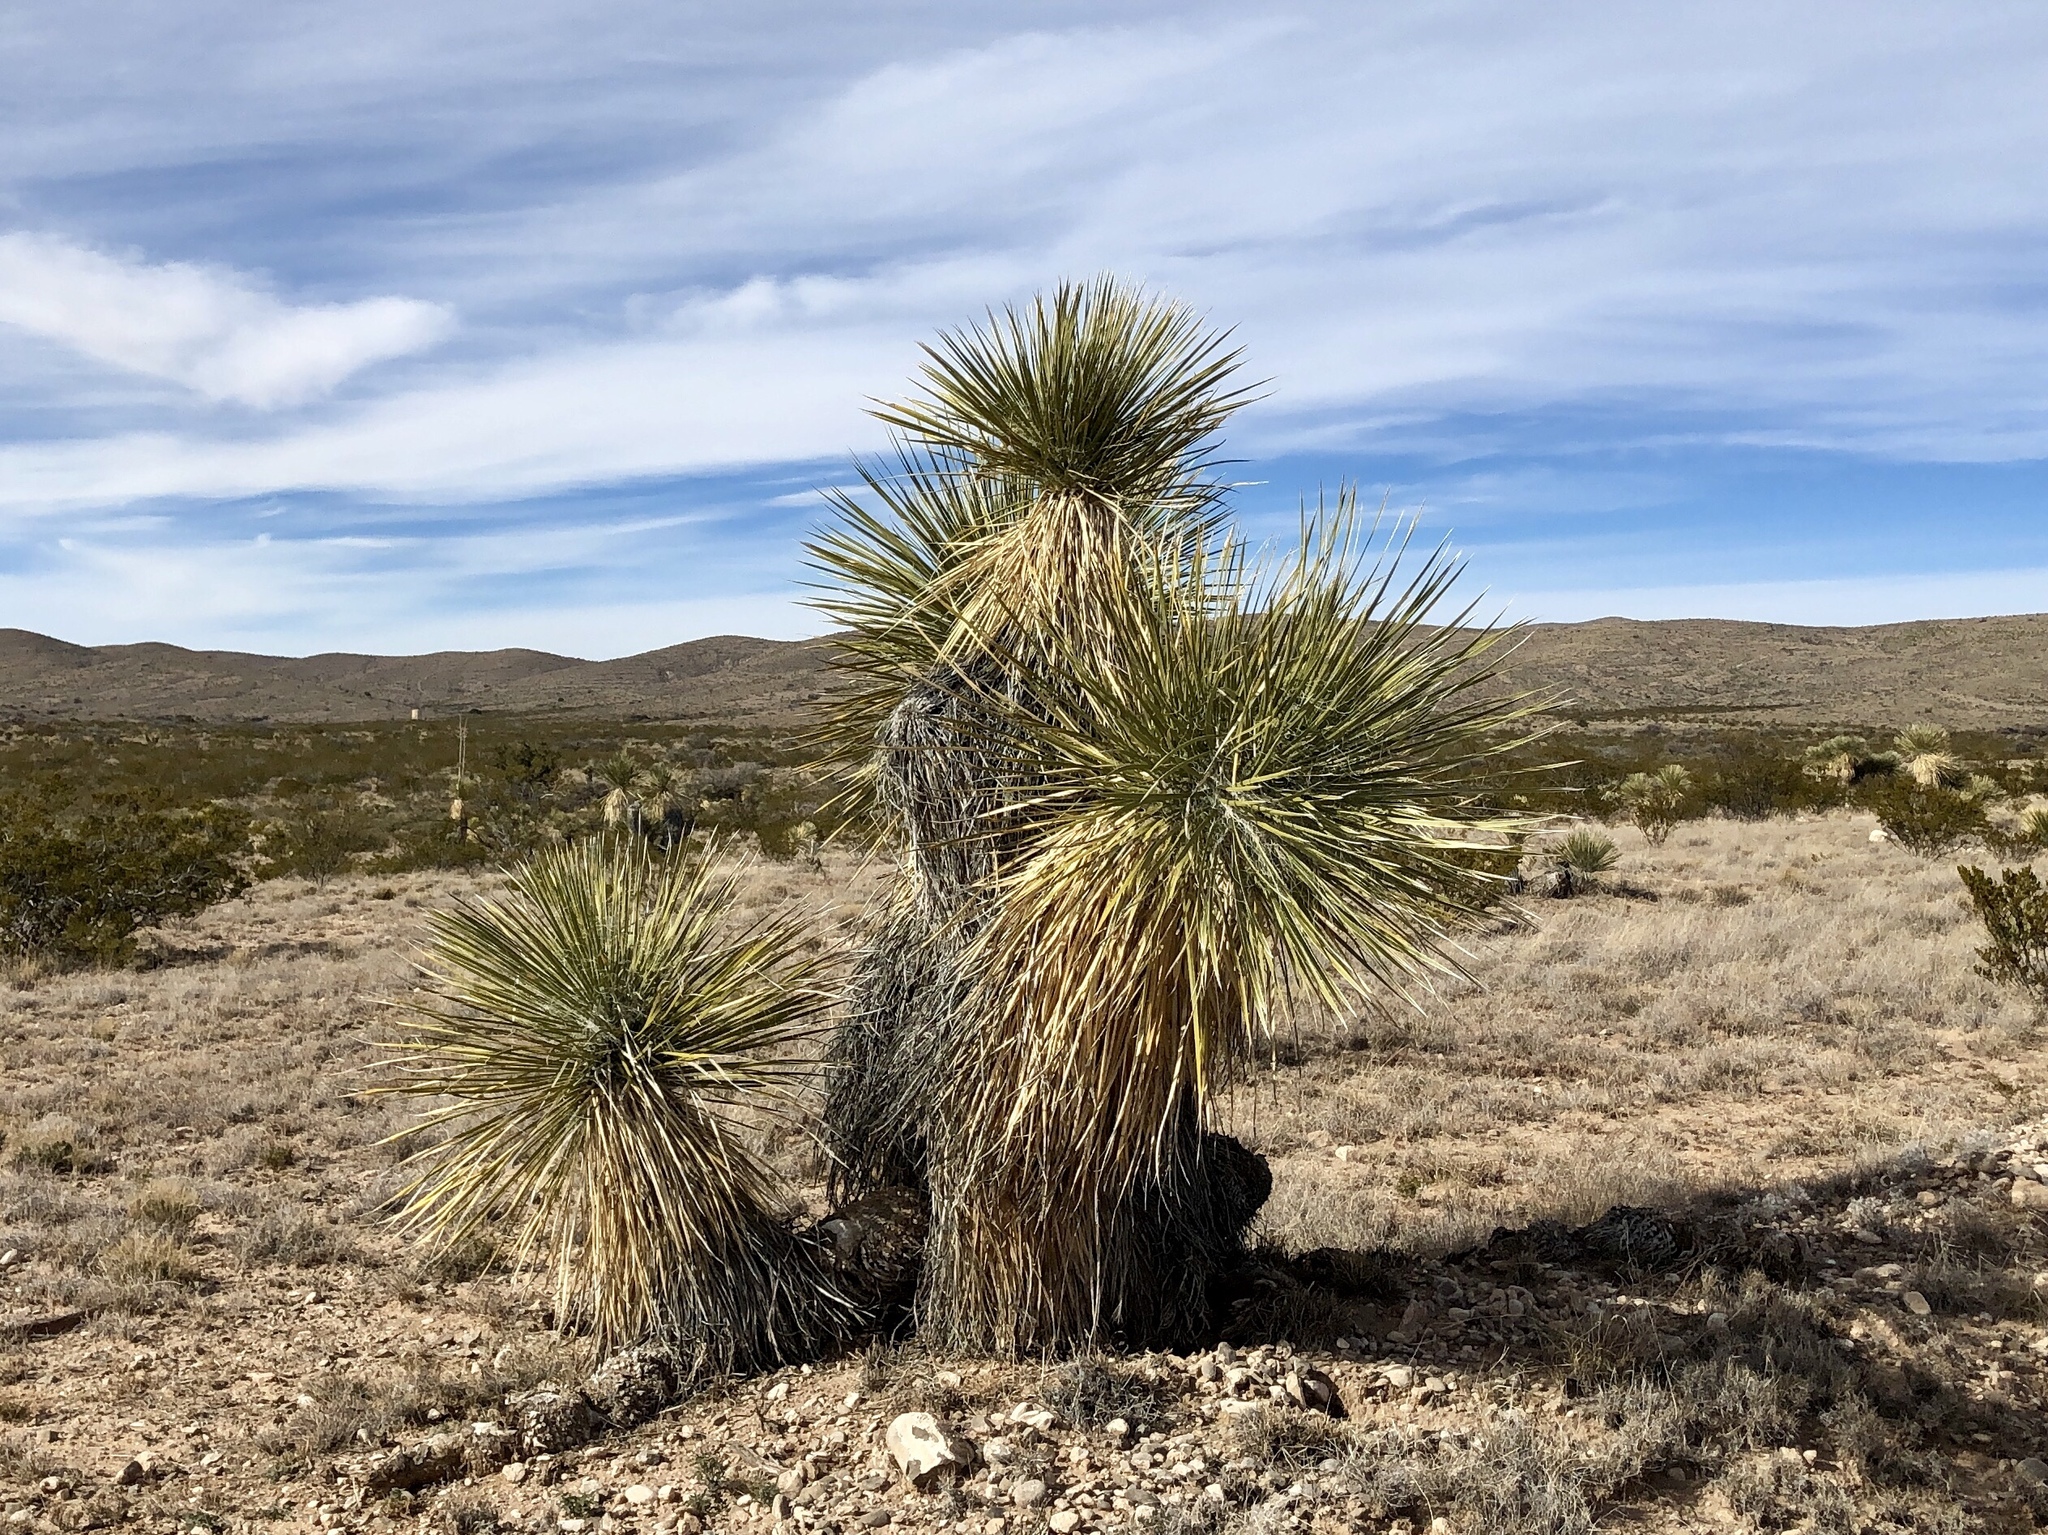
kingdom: Plantae
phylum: Tracheophyta
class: Liliopsida
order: Asparagales
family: Asparagaceae
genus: Yucca
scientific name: Yucca elata
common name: Palmella
